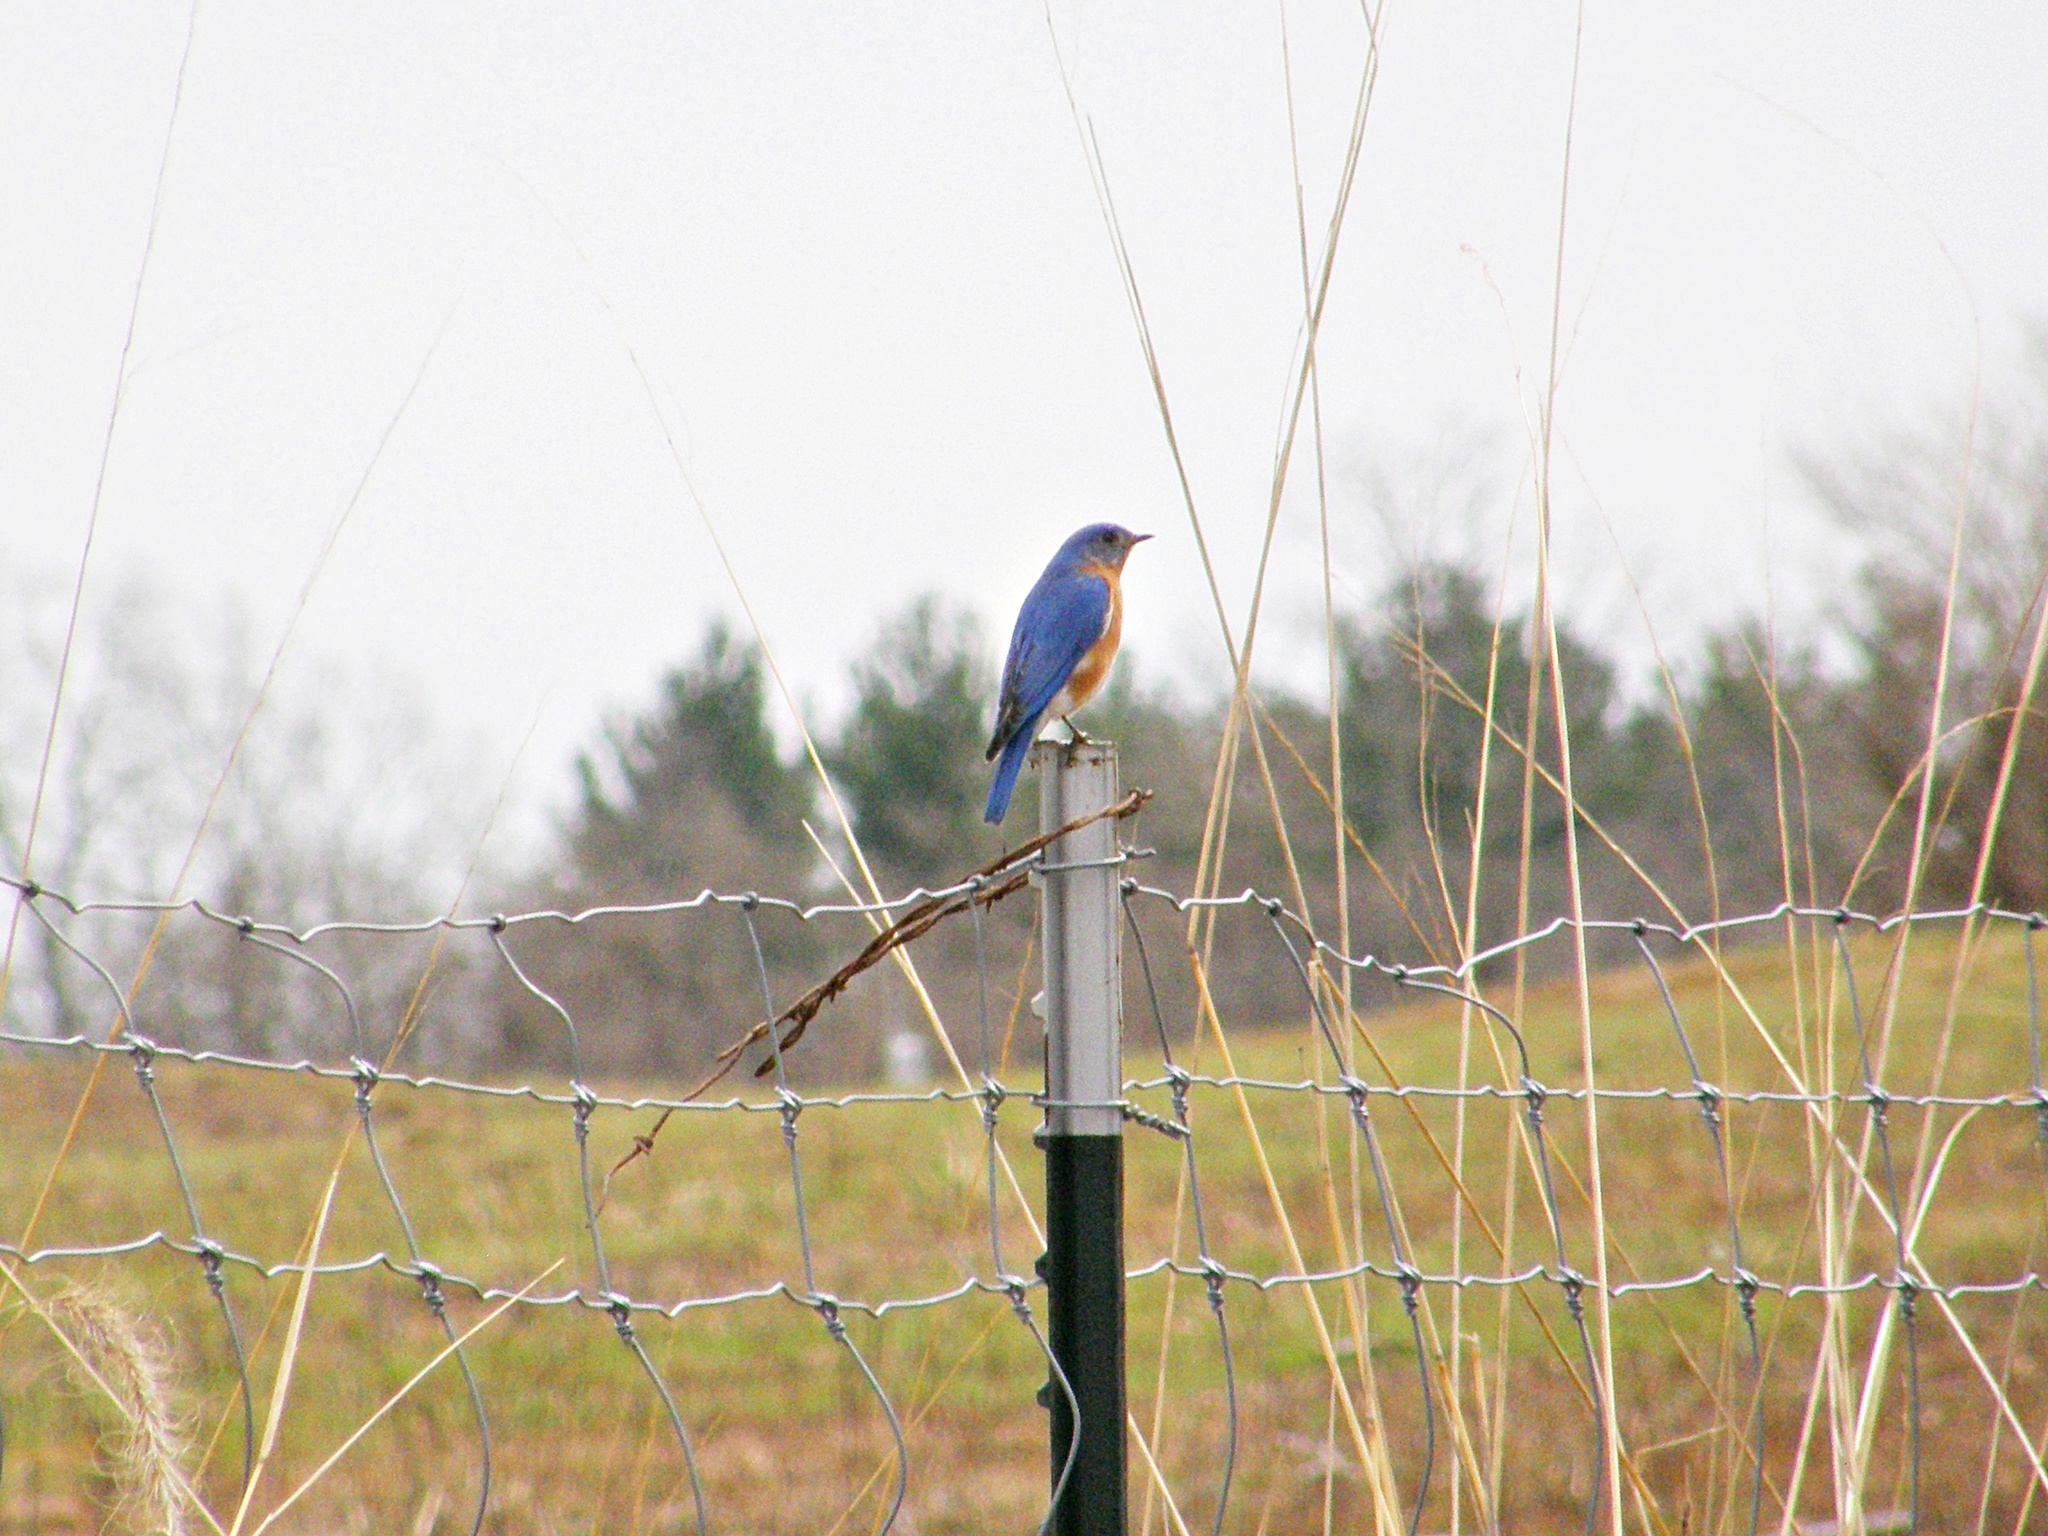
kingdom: Animalia
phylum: Chordata
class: Aves
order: Passeriformes
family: Turdidae
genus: Sialia
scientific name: Sialia sialis
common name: Eastern bluebird
